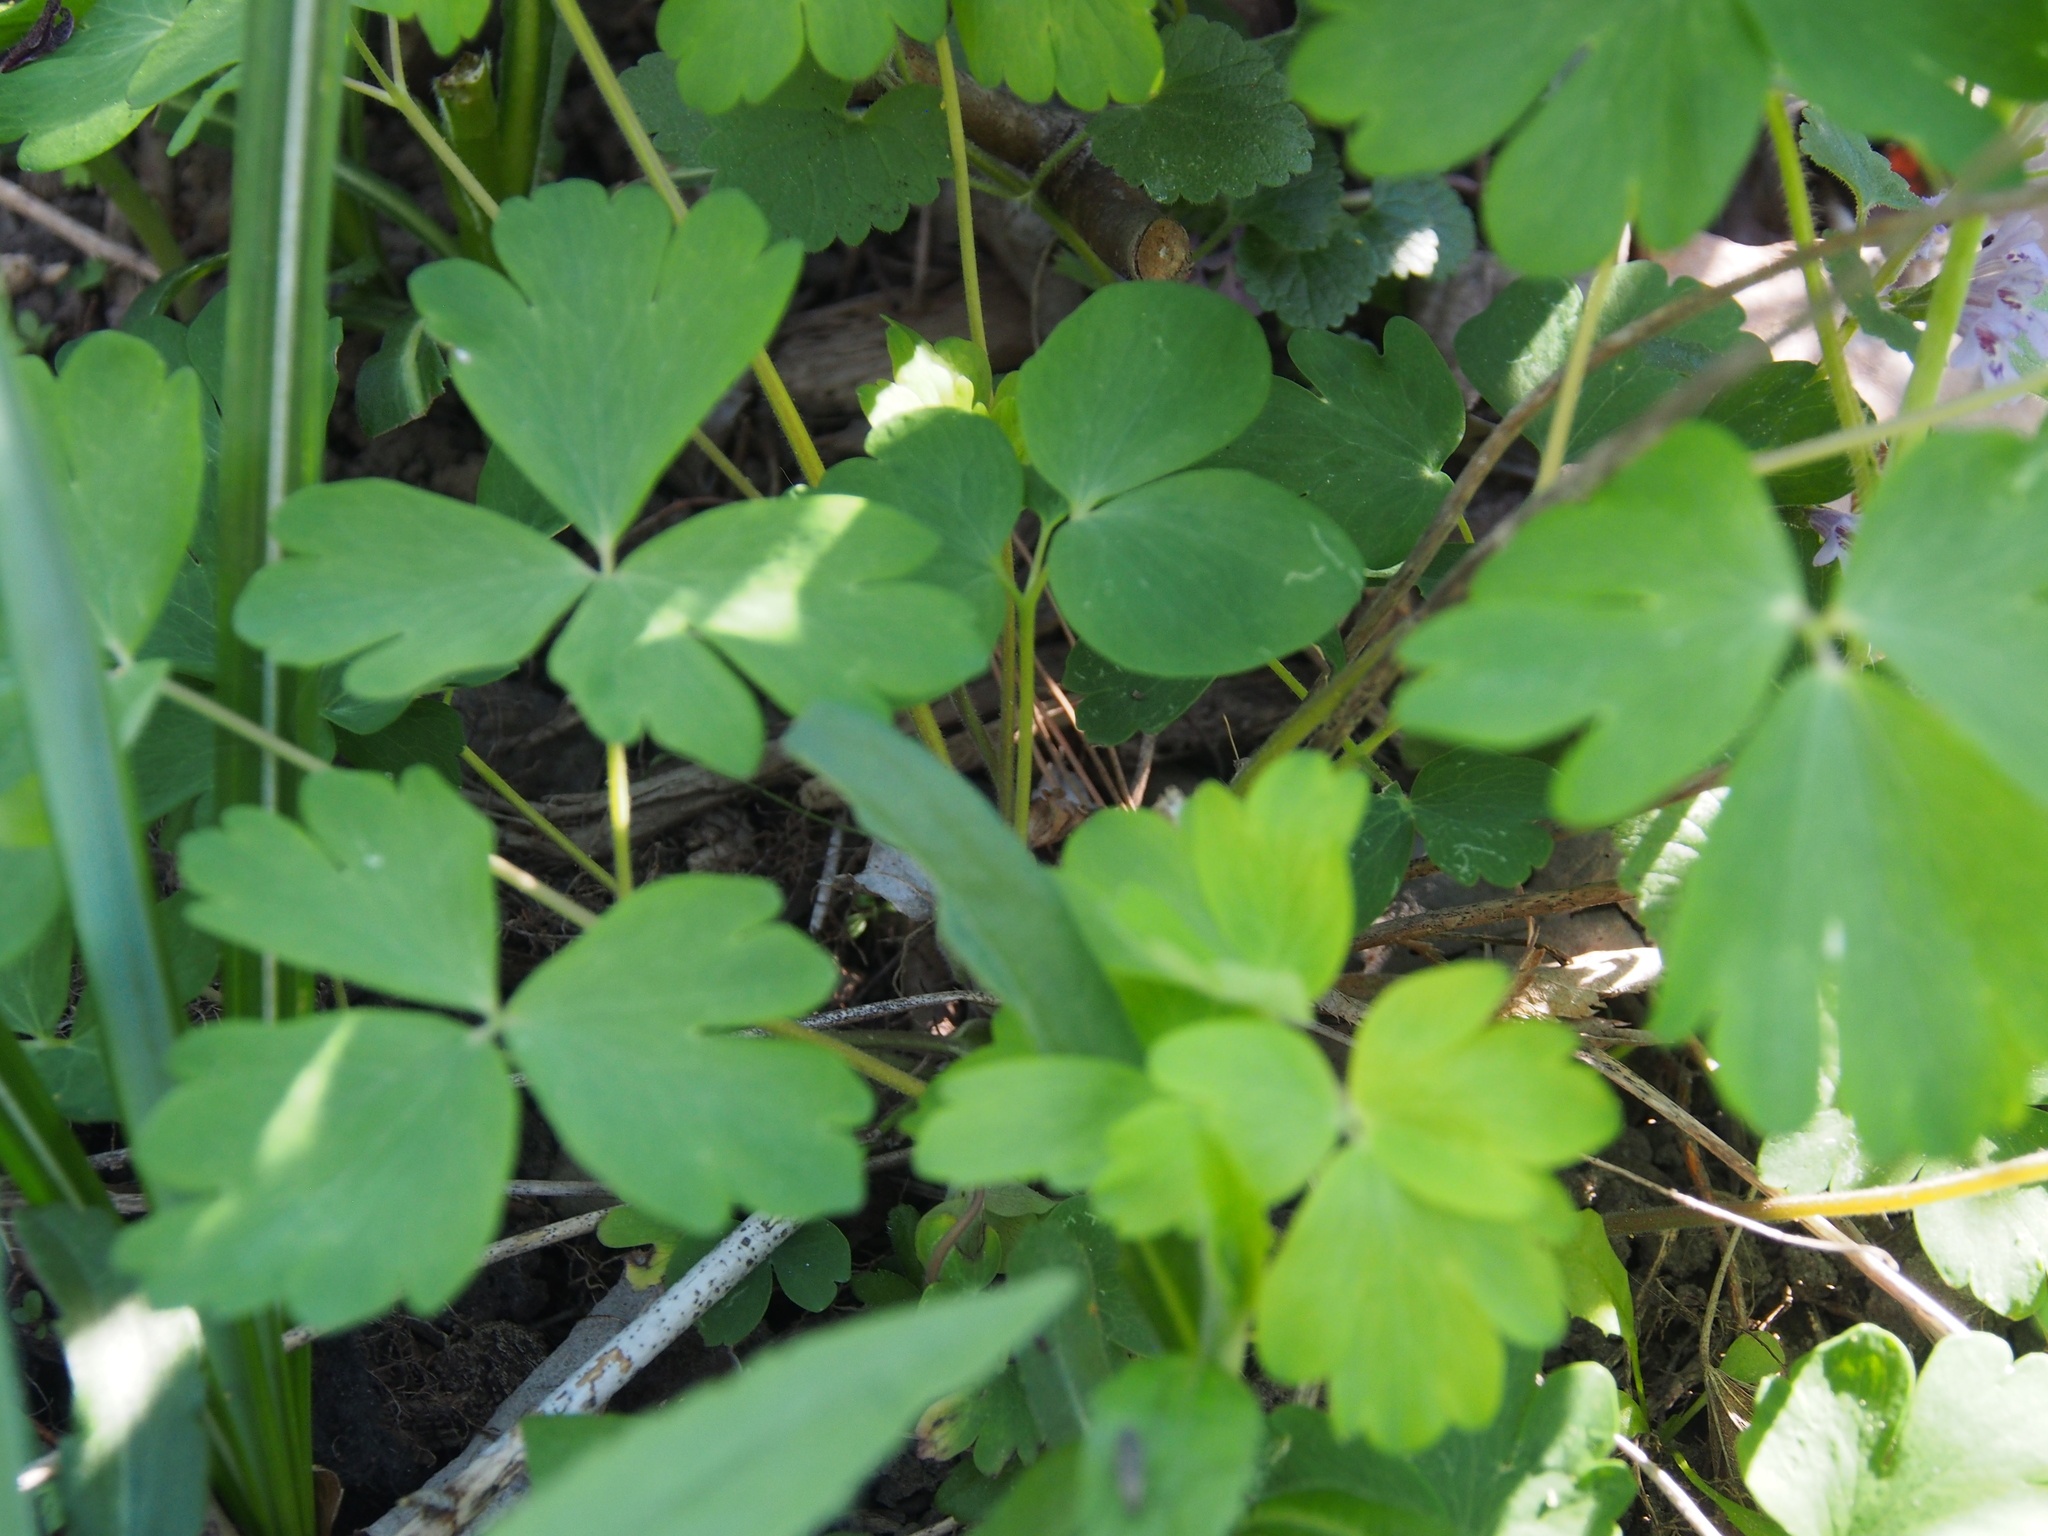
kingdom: Plantae
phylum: Tracheophyta
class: Magnoliopsida
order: Ranunculales
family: Ranunculaceae
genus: Aquilegia
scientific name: Aquilegia canadensis
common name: American columbine
